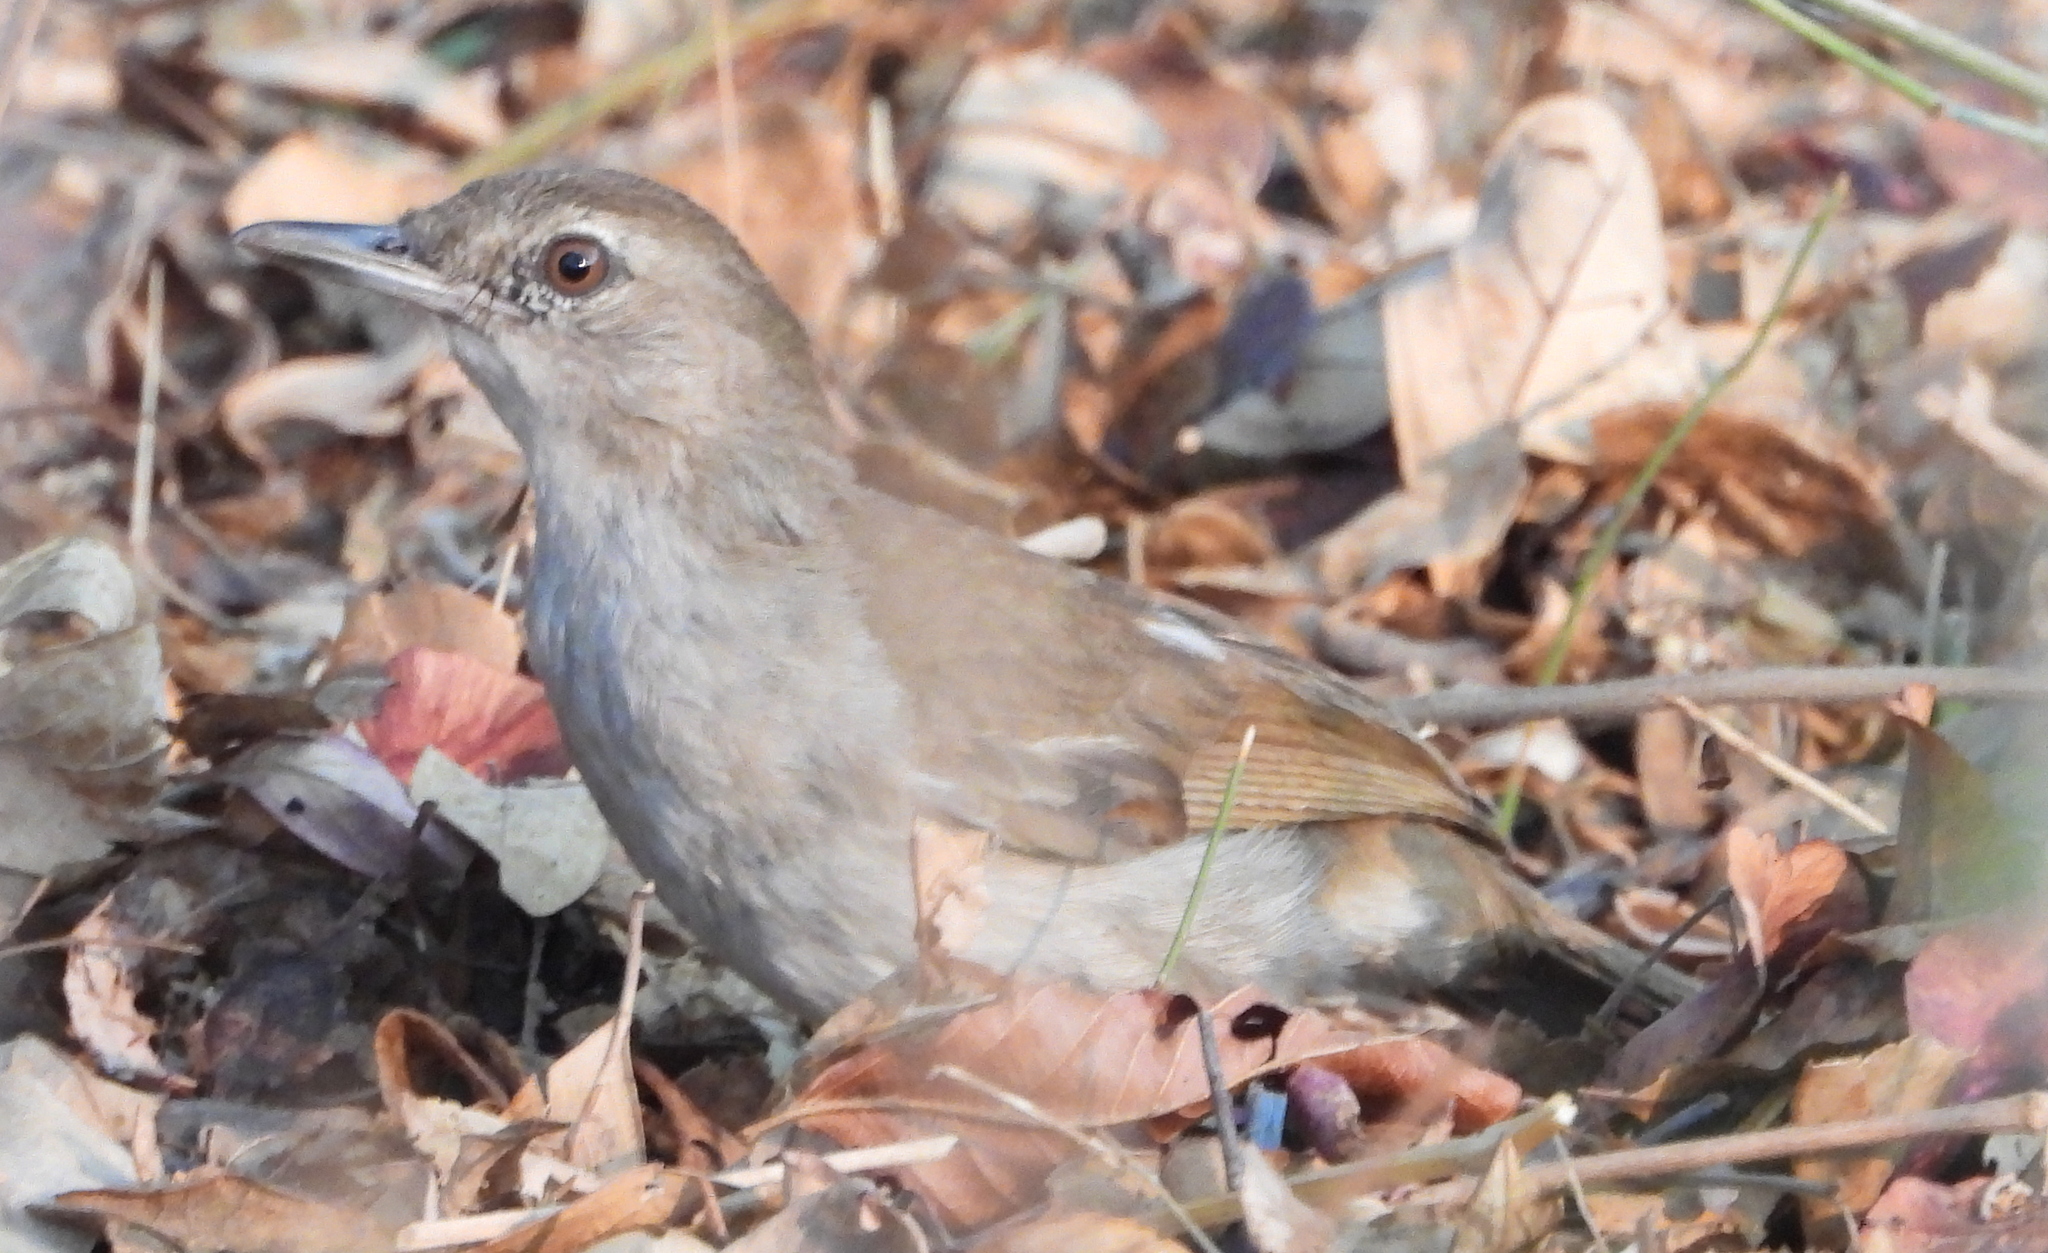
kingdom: Animalia
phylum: Chordata
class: Aves
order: Passeriformes
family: Pycnonotidae
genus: Phyllastrephus
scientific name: Phyllastrephus terrestris
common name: Terrestrial brownbul
